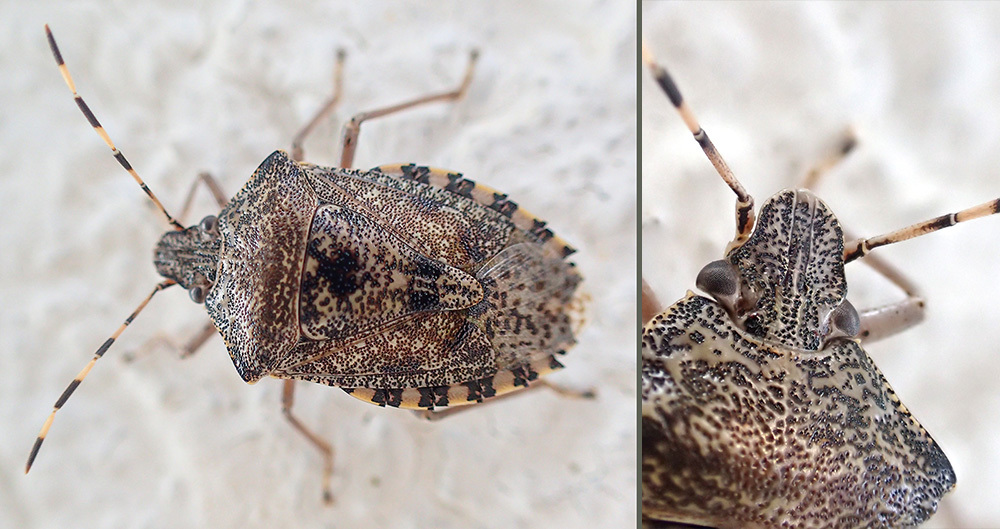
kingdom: Animalia
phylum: Arthropoda
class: Insecta
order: Hemiptera
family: Pentatomidae
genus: Rhaphigaster
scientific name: Rhaphigaster nebulosa
